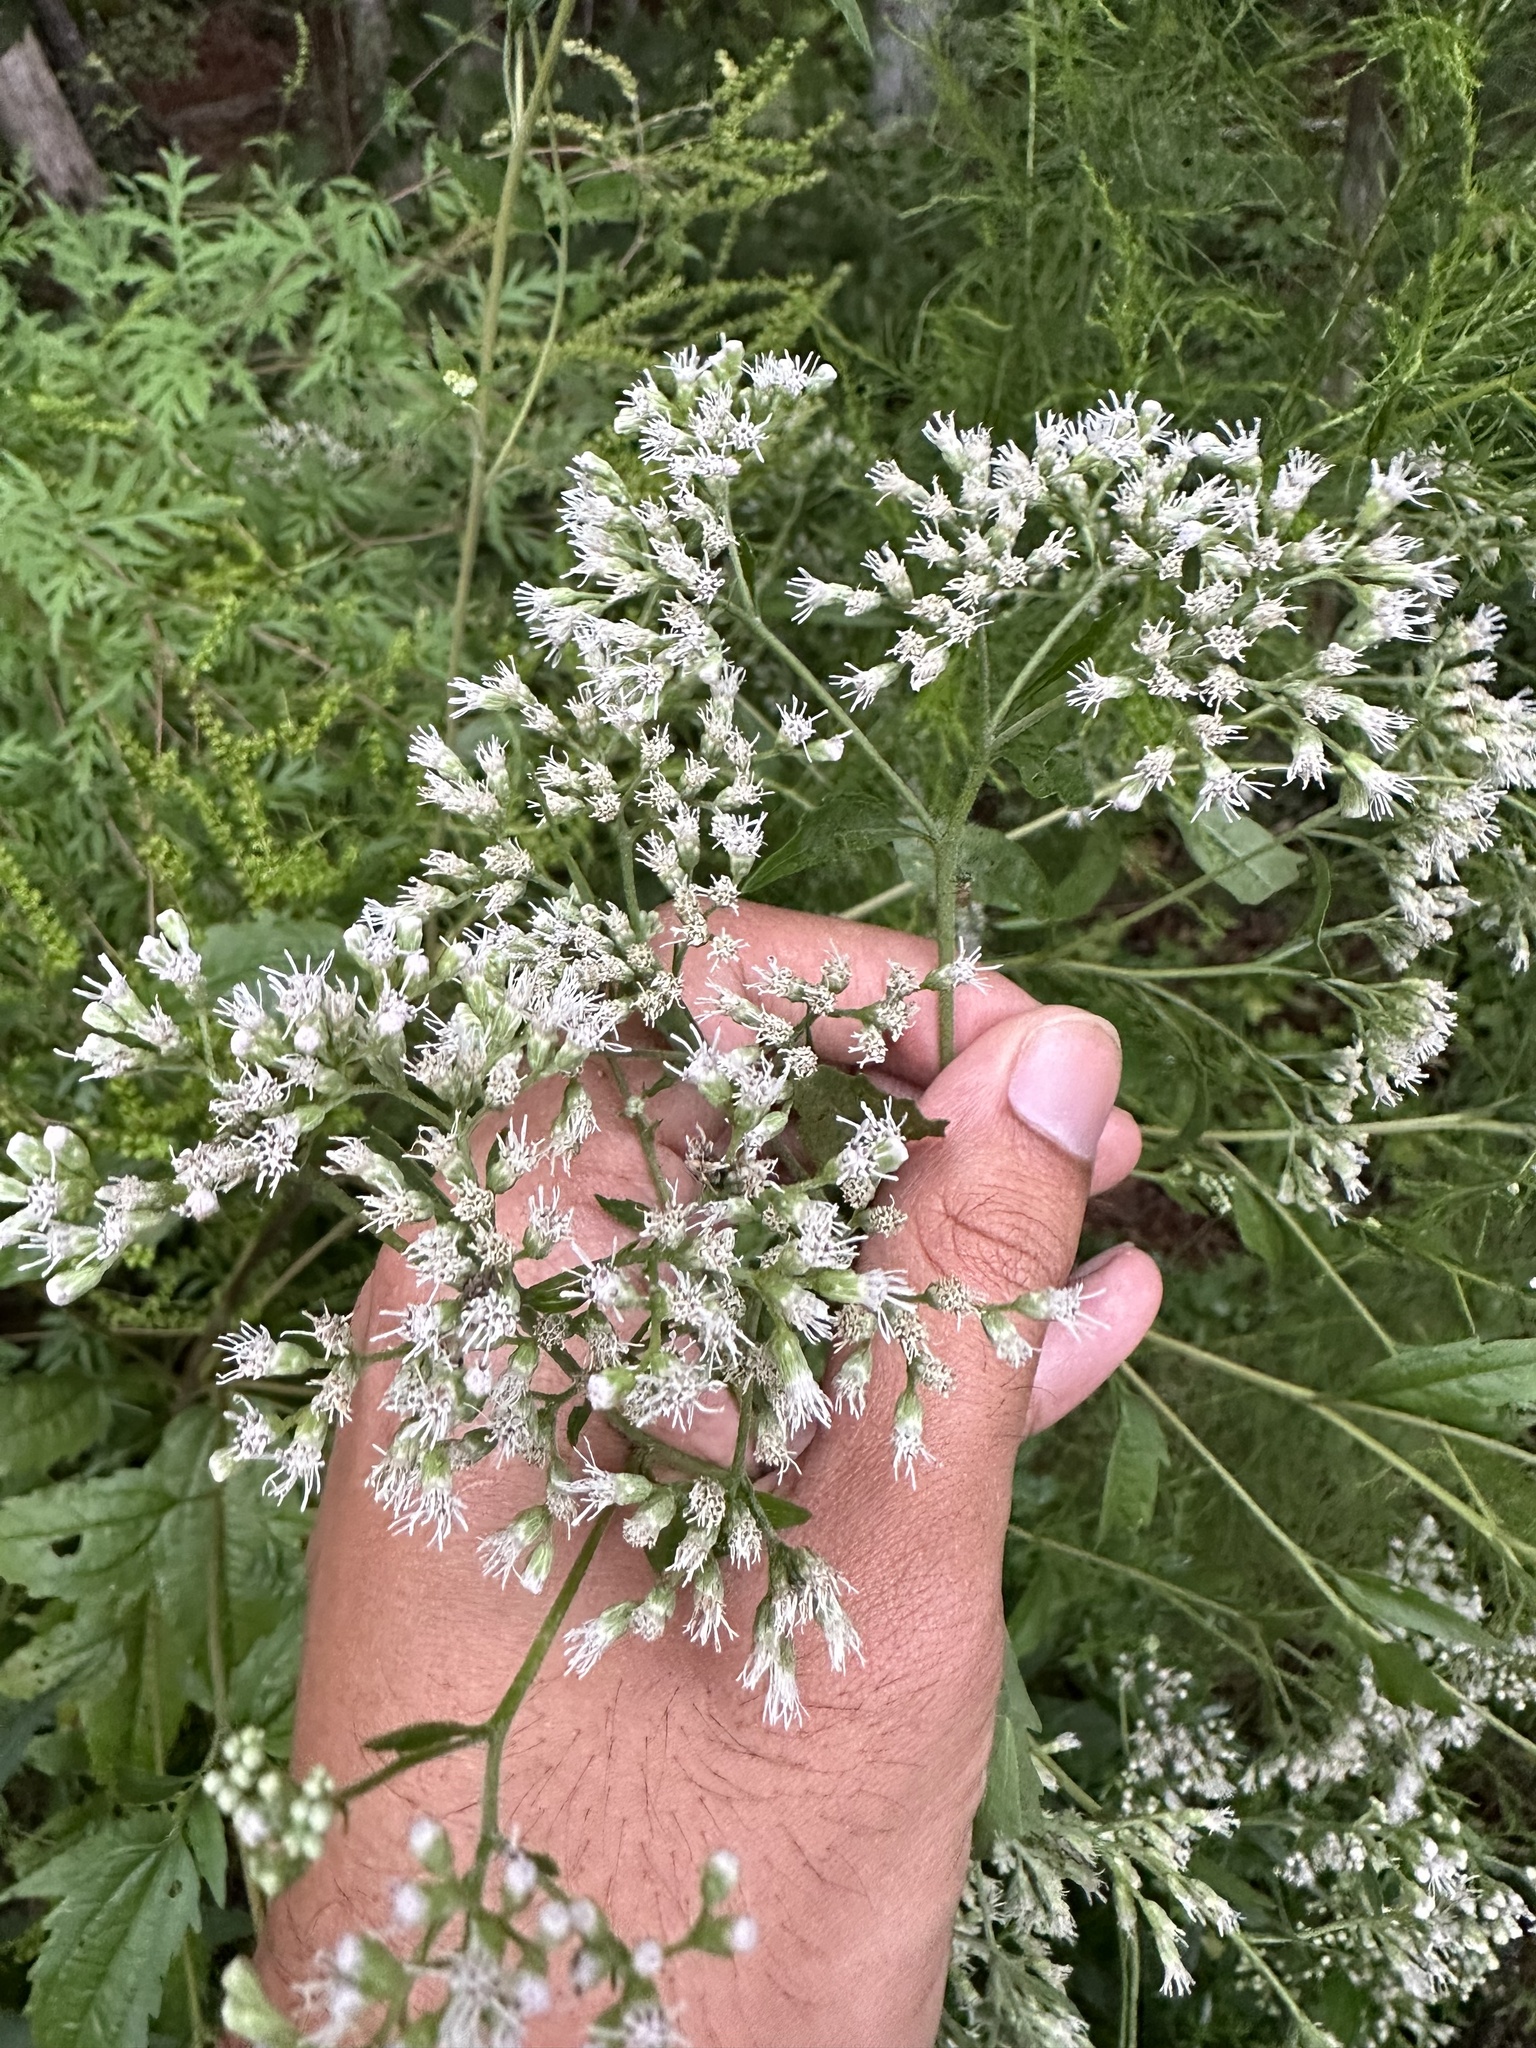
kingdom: Plantae
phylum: Tracheophyta
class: Magnoliopsida
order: Asterales
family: Asteraceae
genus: Eupatorium
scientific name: Eupatorium serotinum
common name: Late boneset
